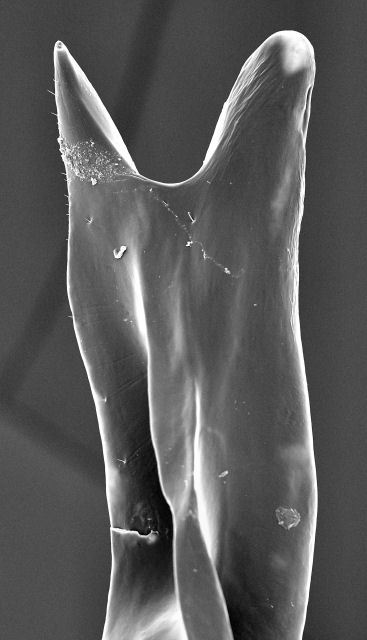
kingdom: Animalia
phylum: Arthropoda
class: Insecta
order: Hymenoptera
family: Formicidae
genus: Neivamyrmex
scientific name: Neivamyrmex mojave
